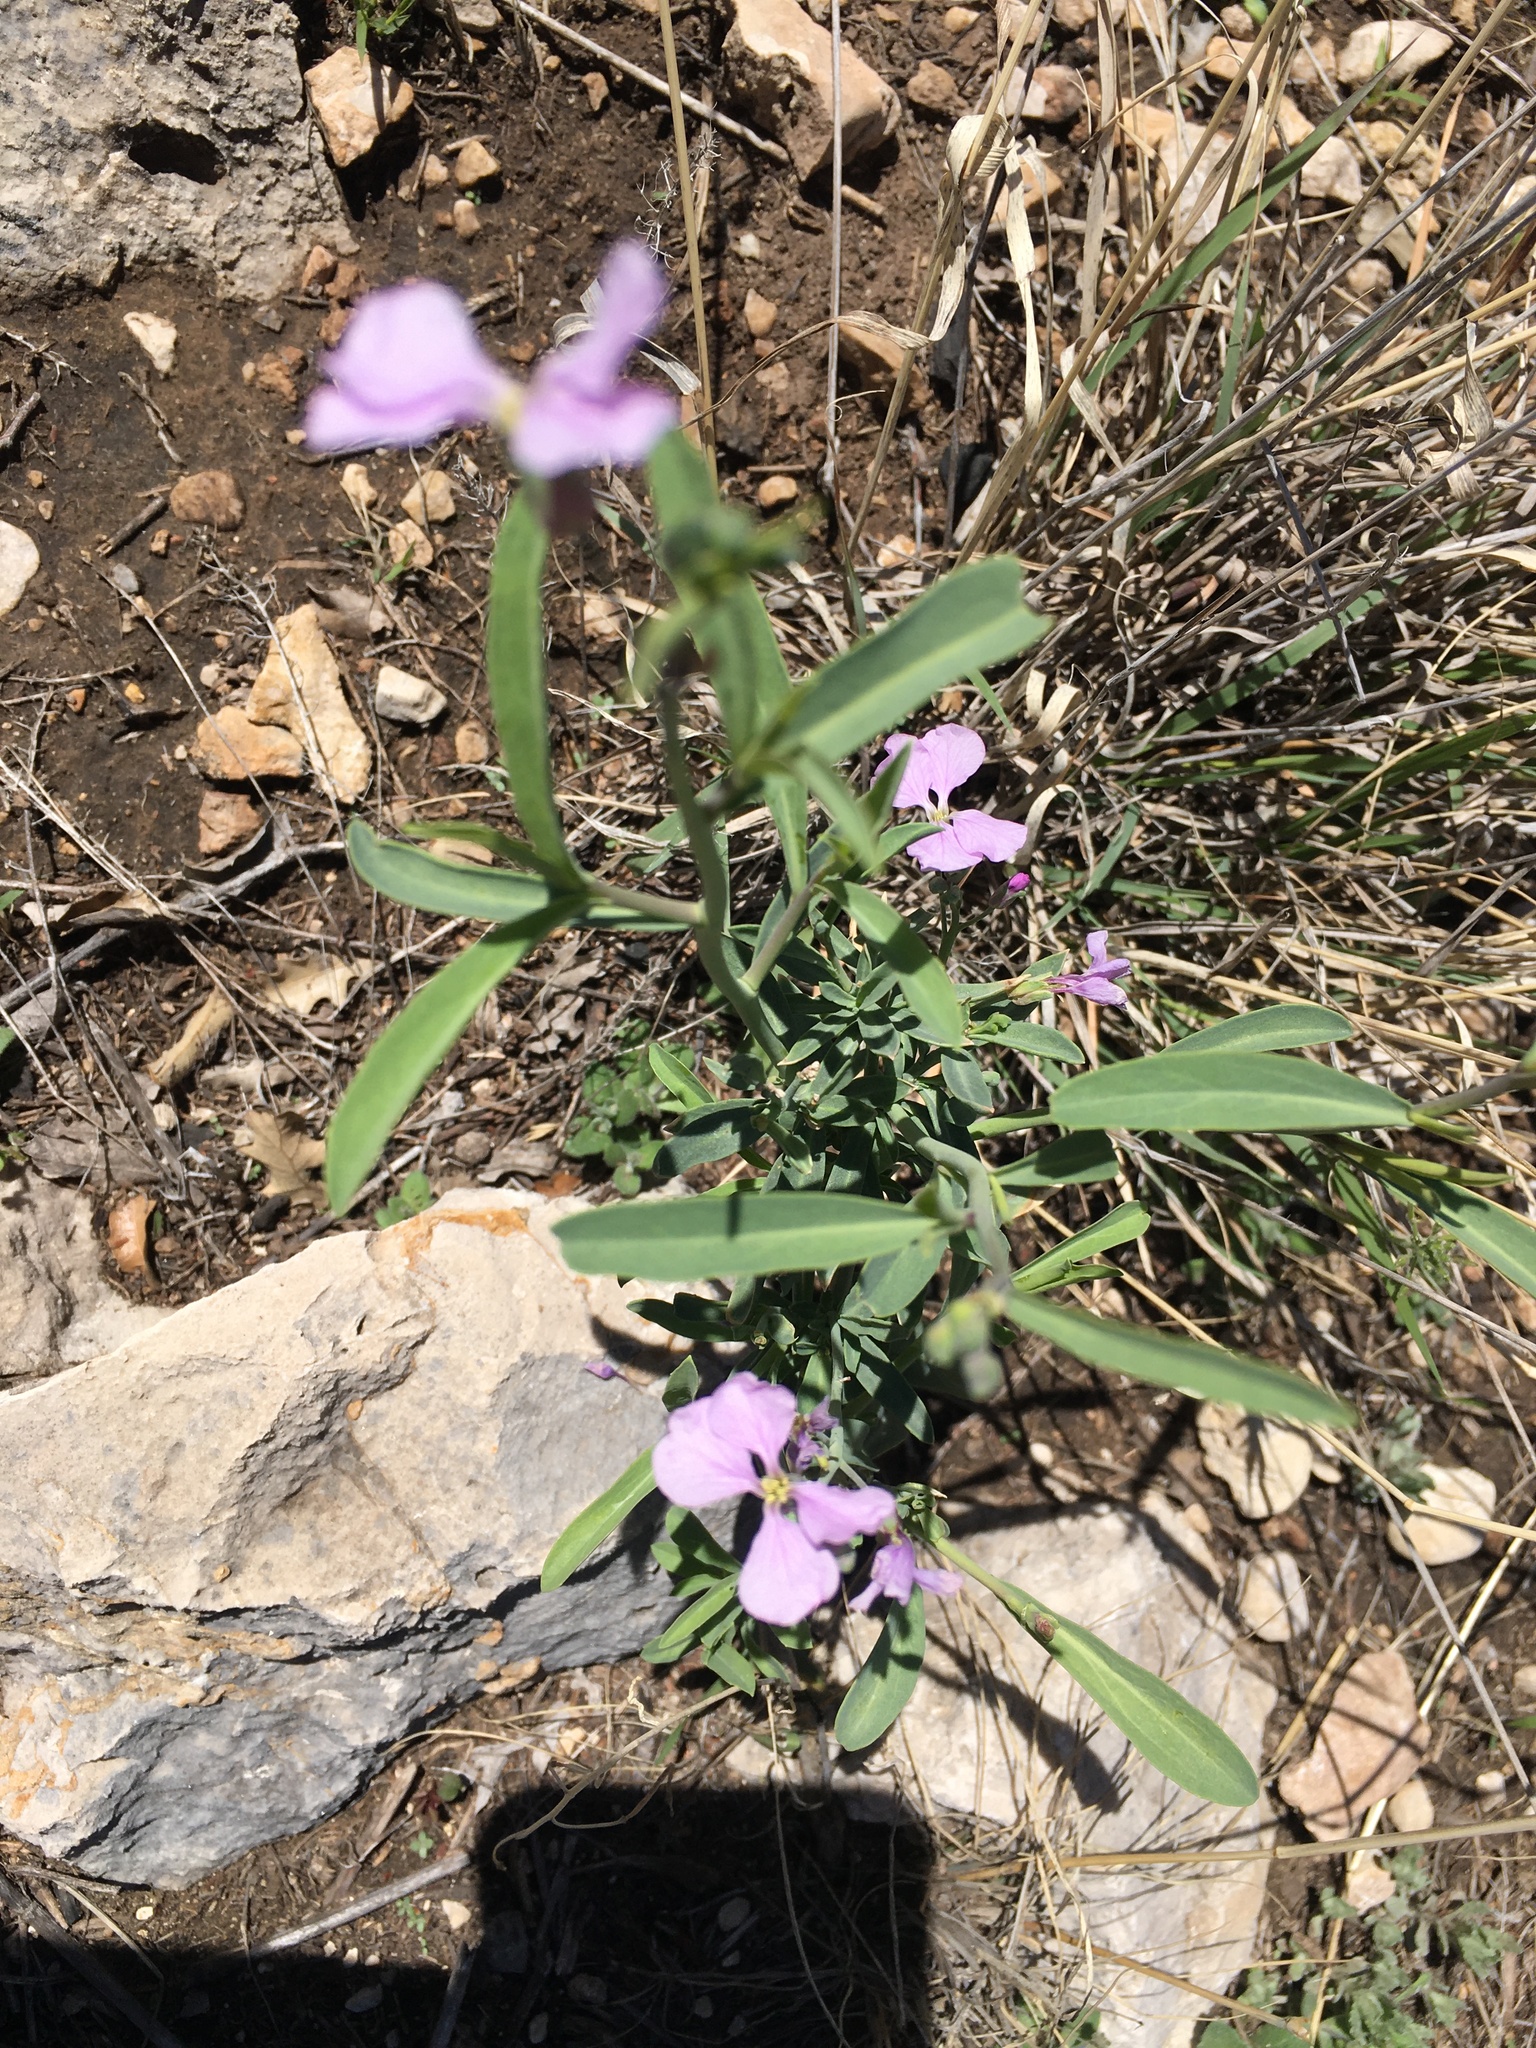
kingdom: Plantae
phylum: Tracheophyta
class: Magnoliopsida
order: Brassicales
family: Brassicaceae
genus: Hesperidanthus
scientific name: Hesperidanthus linearifolius
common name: Slim-leaf plains mustard
